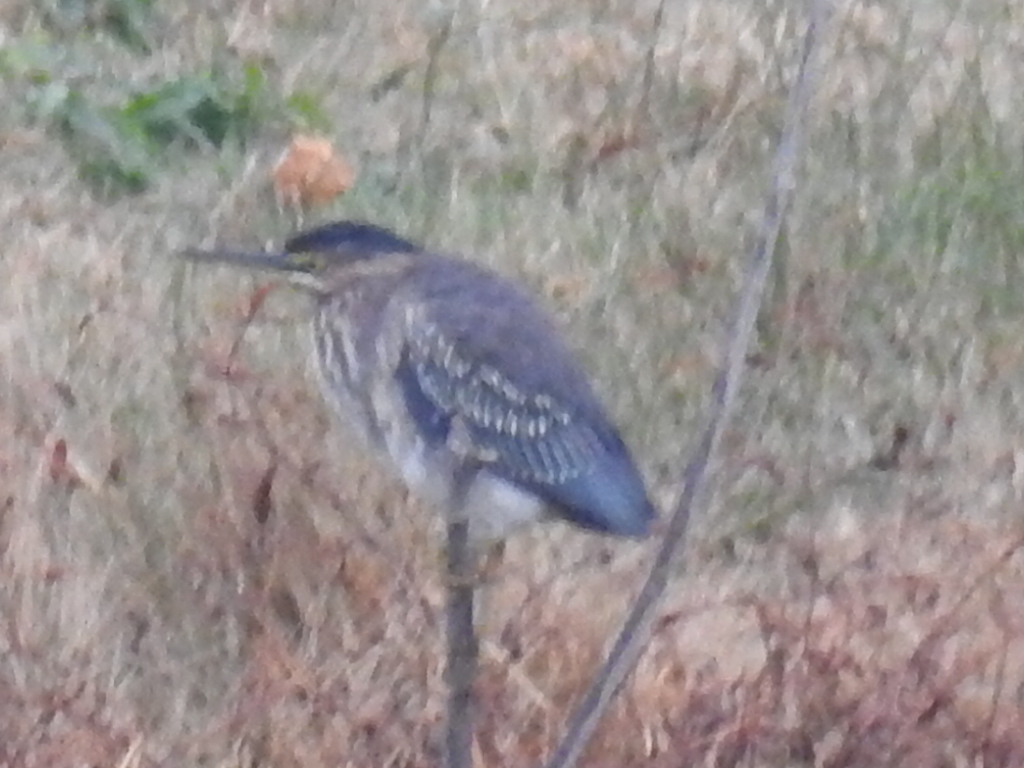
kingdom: Animalia
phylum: Chordata
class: Aves
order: Pelecaniformes
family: Ardeidae
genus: Butorides
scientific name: Butorides virescens
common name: Green heron
